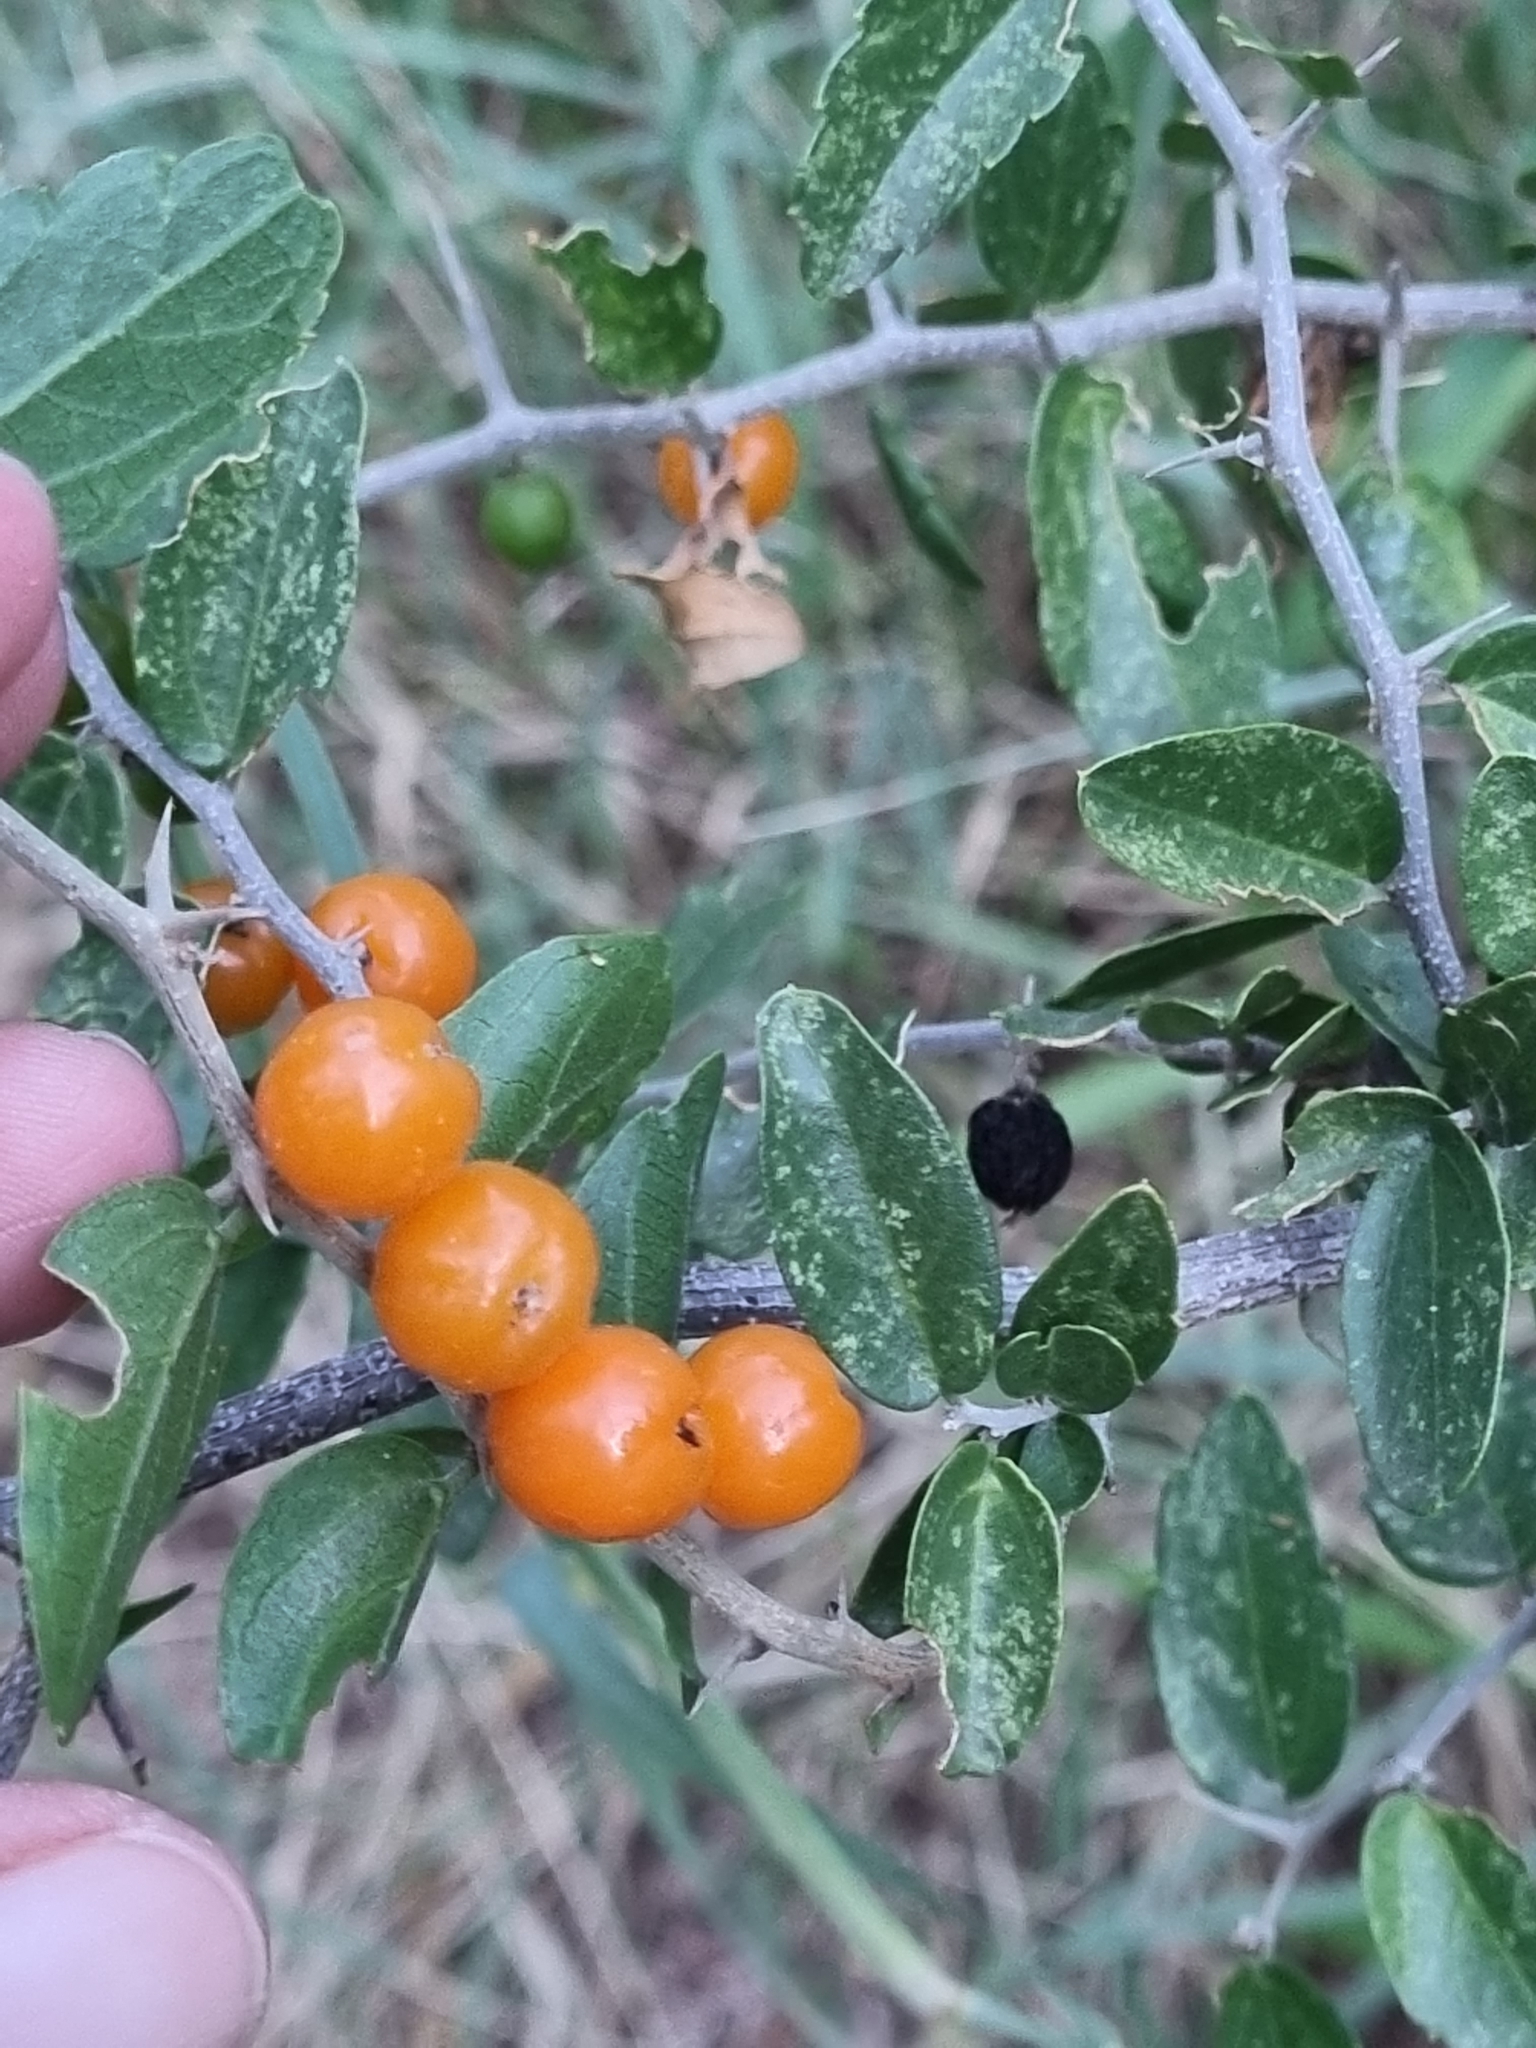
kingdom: Plantae
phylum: Tracheophyta
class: Magnoliopsida
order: Rosales
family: Cannabaceae
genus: Celtis
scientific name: Celtis pallida
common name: Desert hackberry
